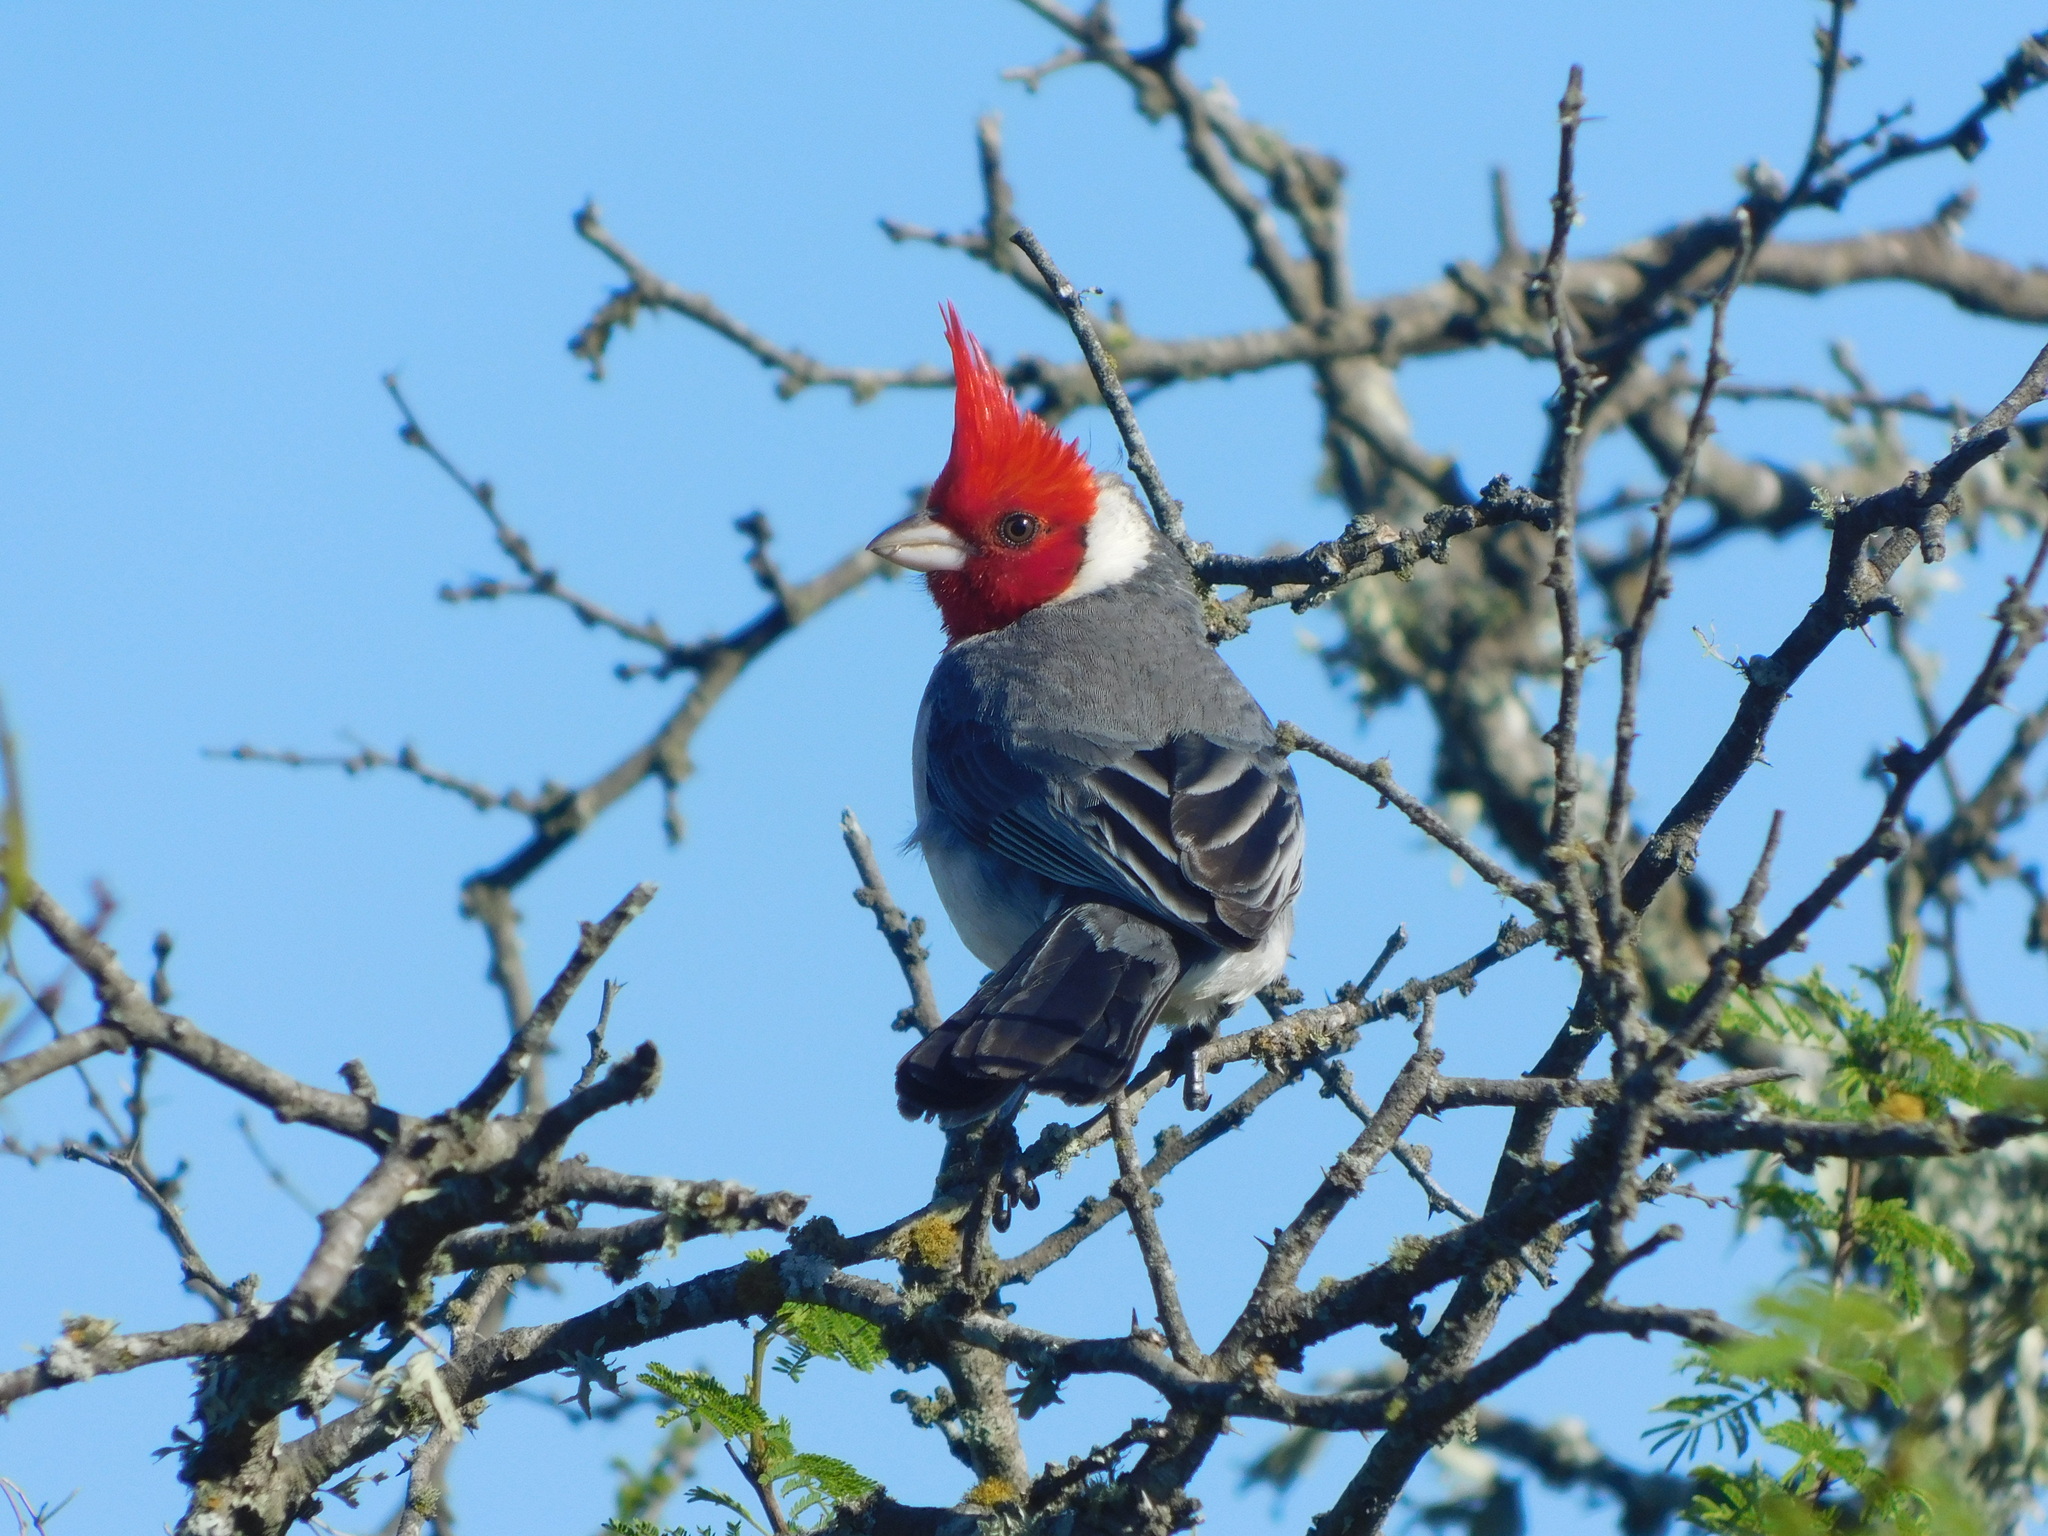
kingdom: Animalia
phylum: Chordata
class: Aves
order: Passeriformes
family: Thraupidae
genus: Paroaria
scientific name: Paroaria coronata
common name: Red-crested cardinal
